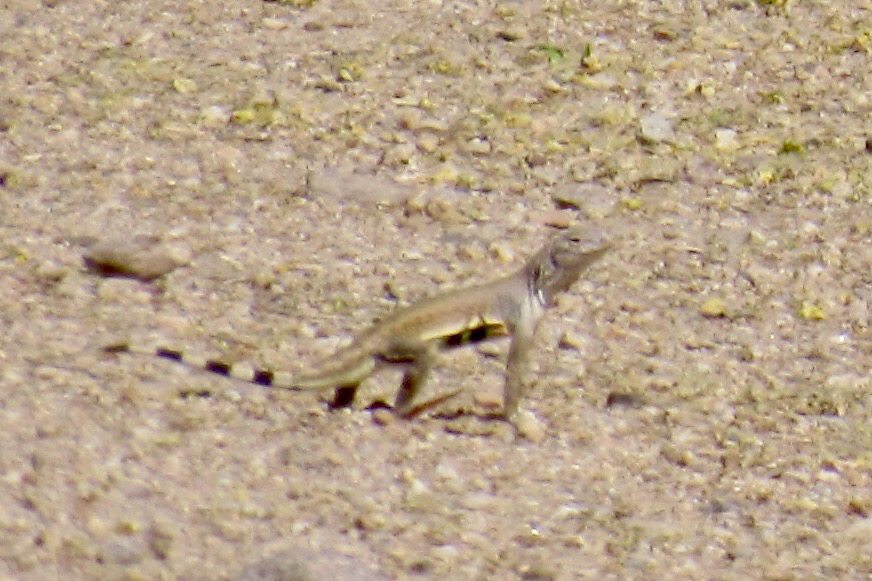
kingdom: Animalia
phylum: Chordata
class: Squamata
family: Phrynosomatidae
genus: Callisaurus
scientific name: Callisaurus draconoides
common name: Zebra-tailed lizard
